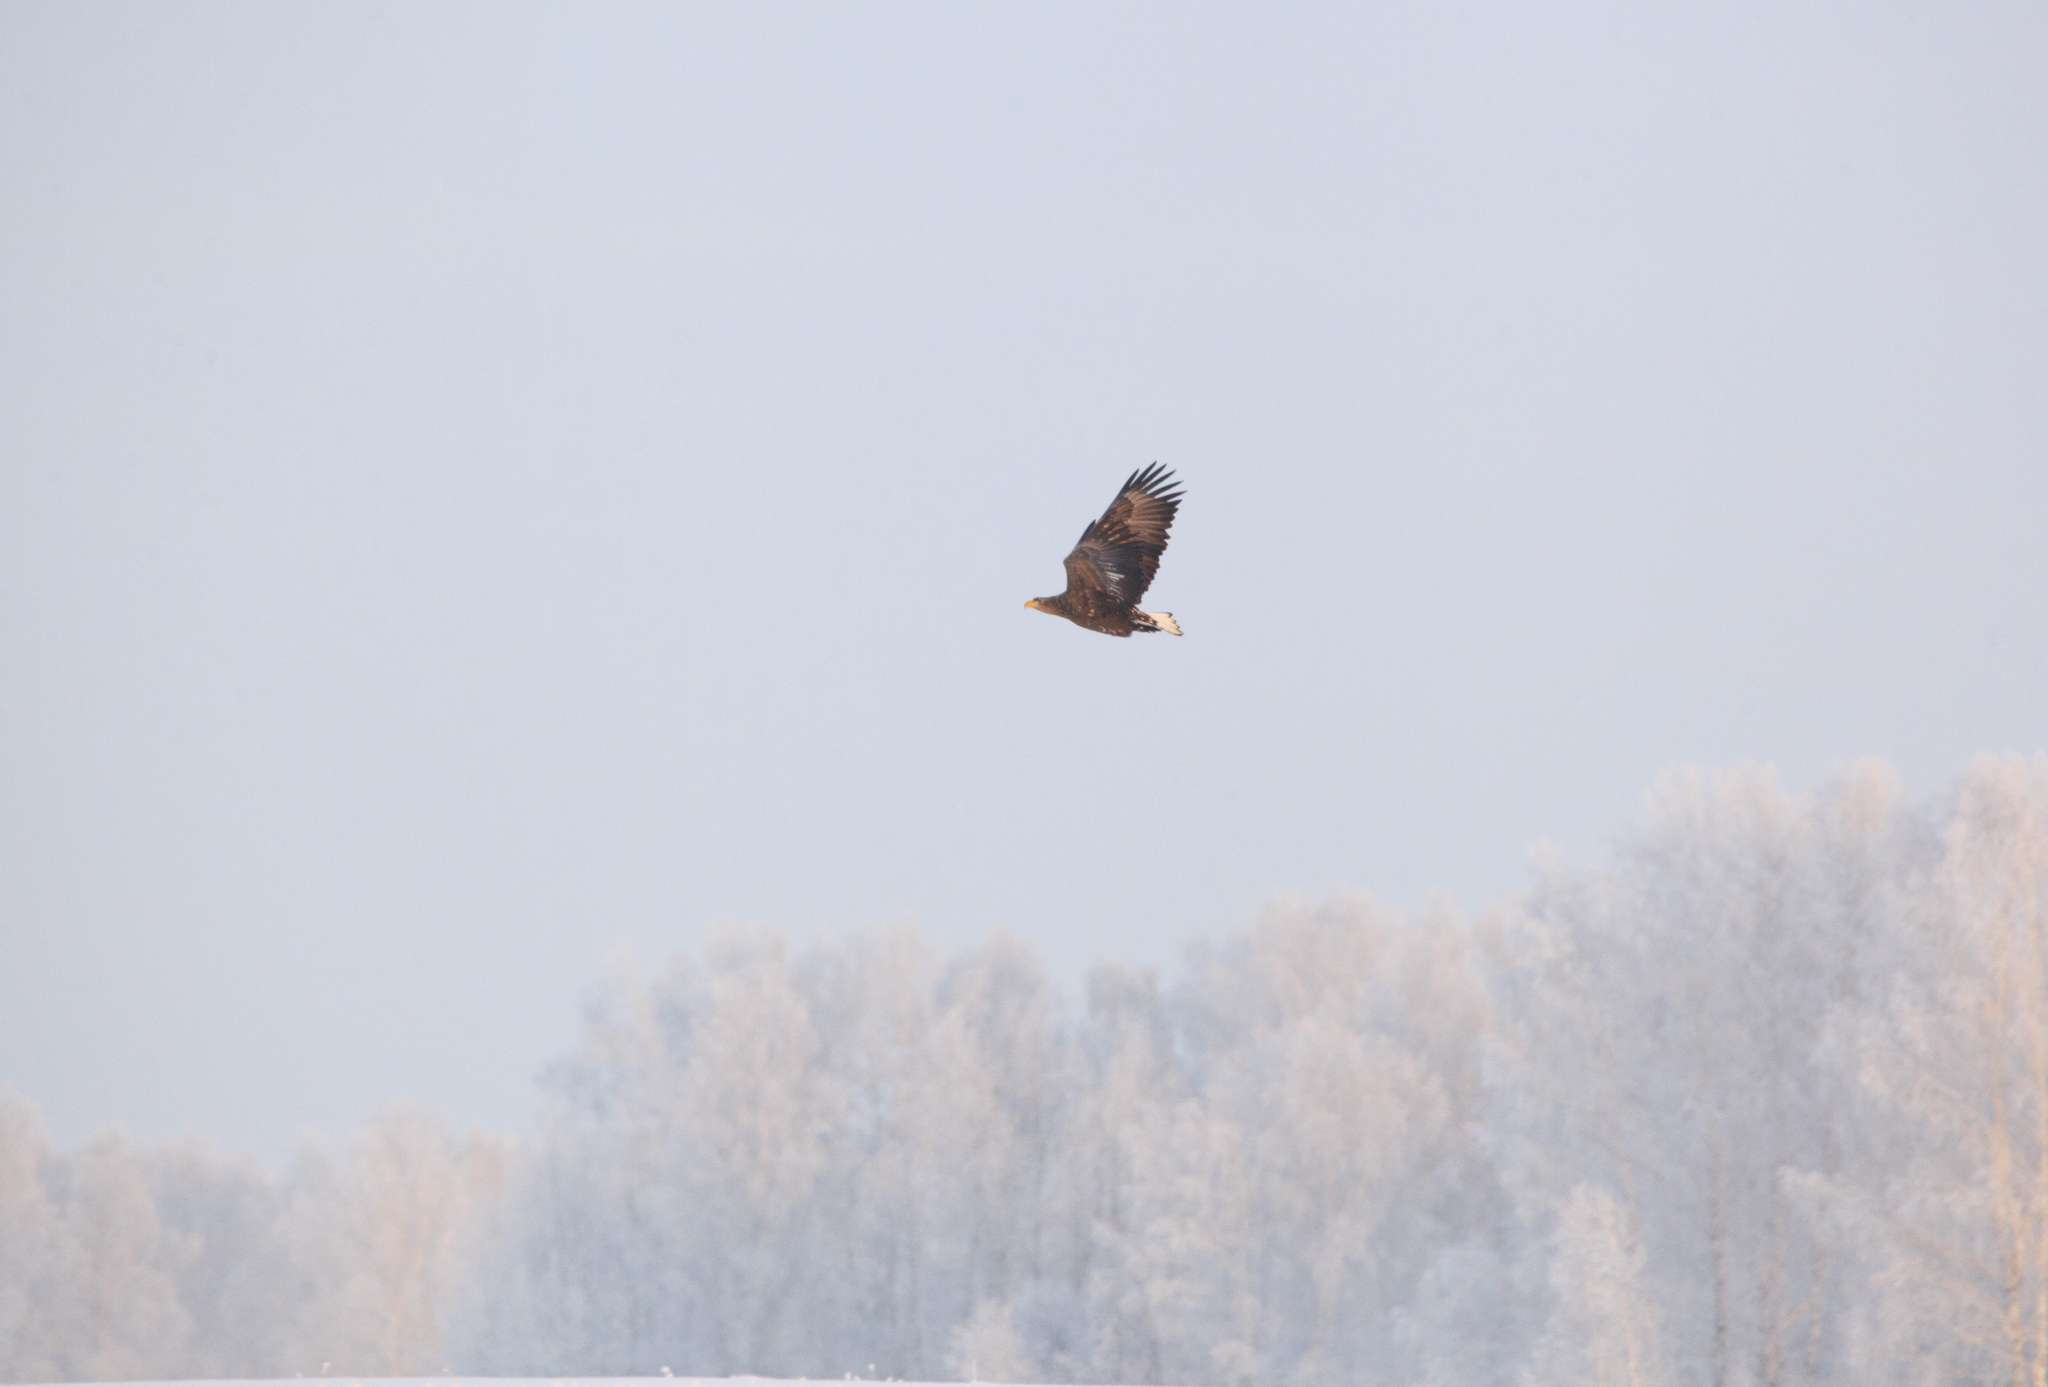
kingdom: Animalia
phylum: Chordata
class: Aves
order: Accipitriformes
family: Accipitridae
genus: Haliaeetus
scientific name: Haliaeetus albicilla
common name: White-tailed eagle
